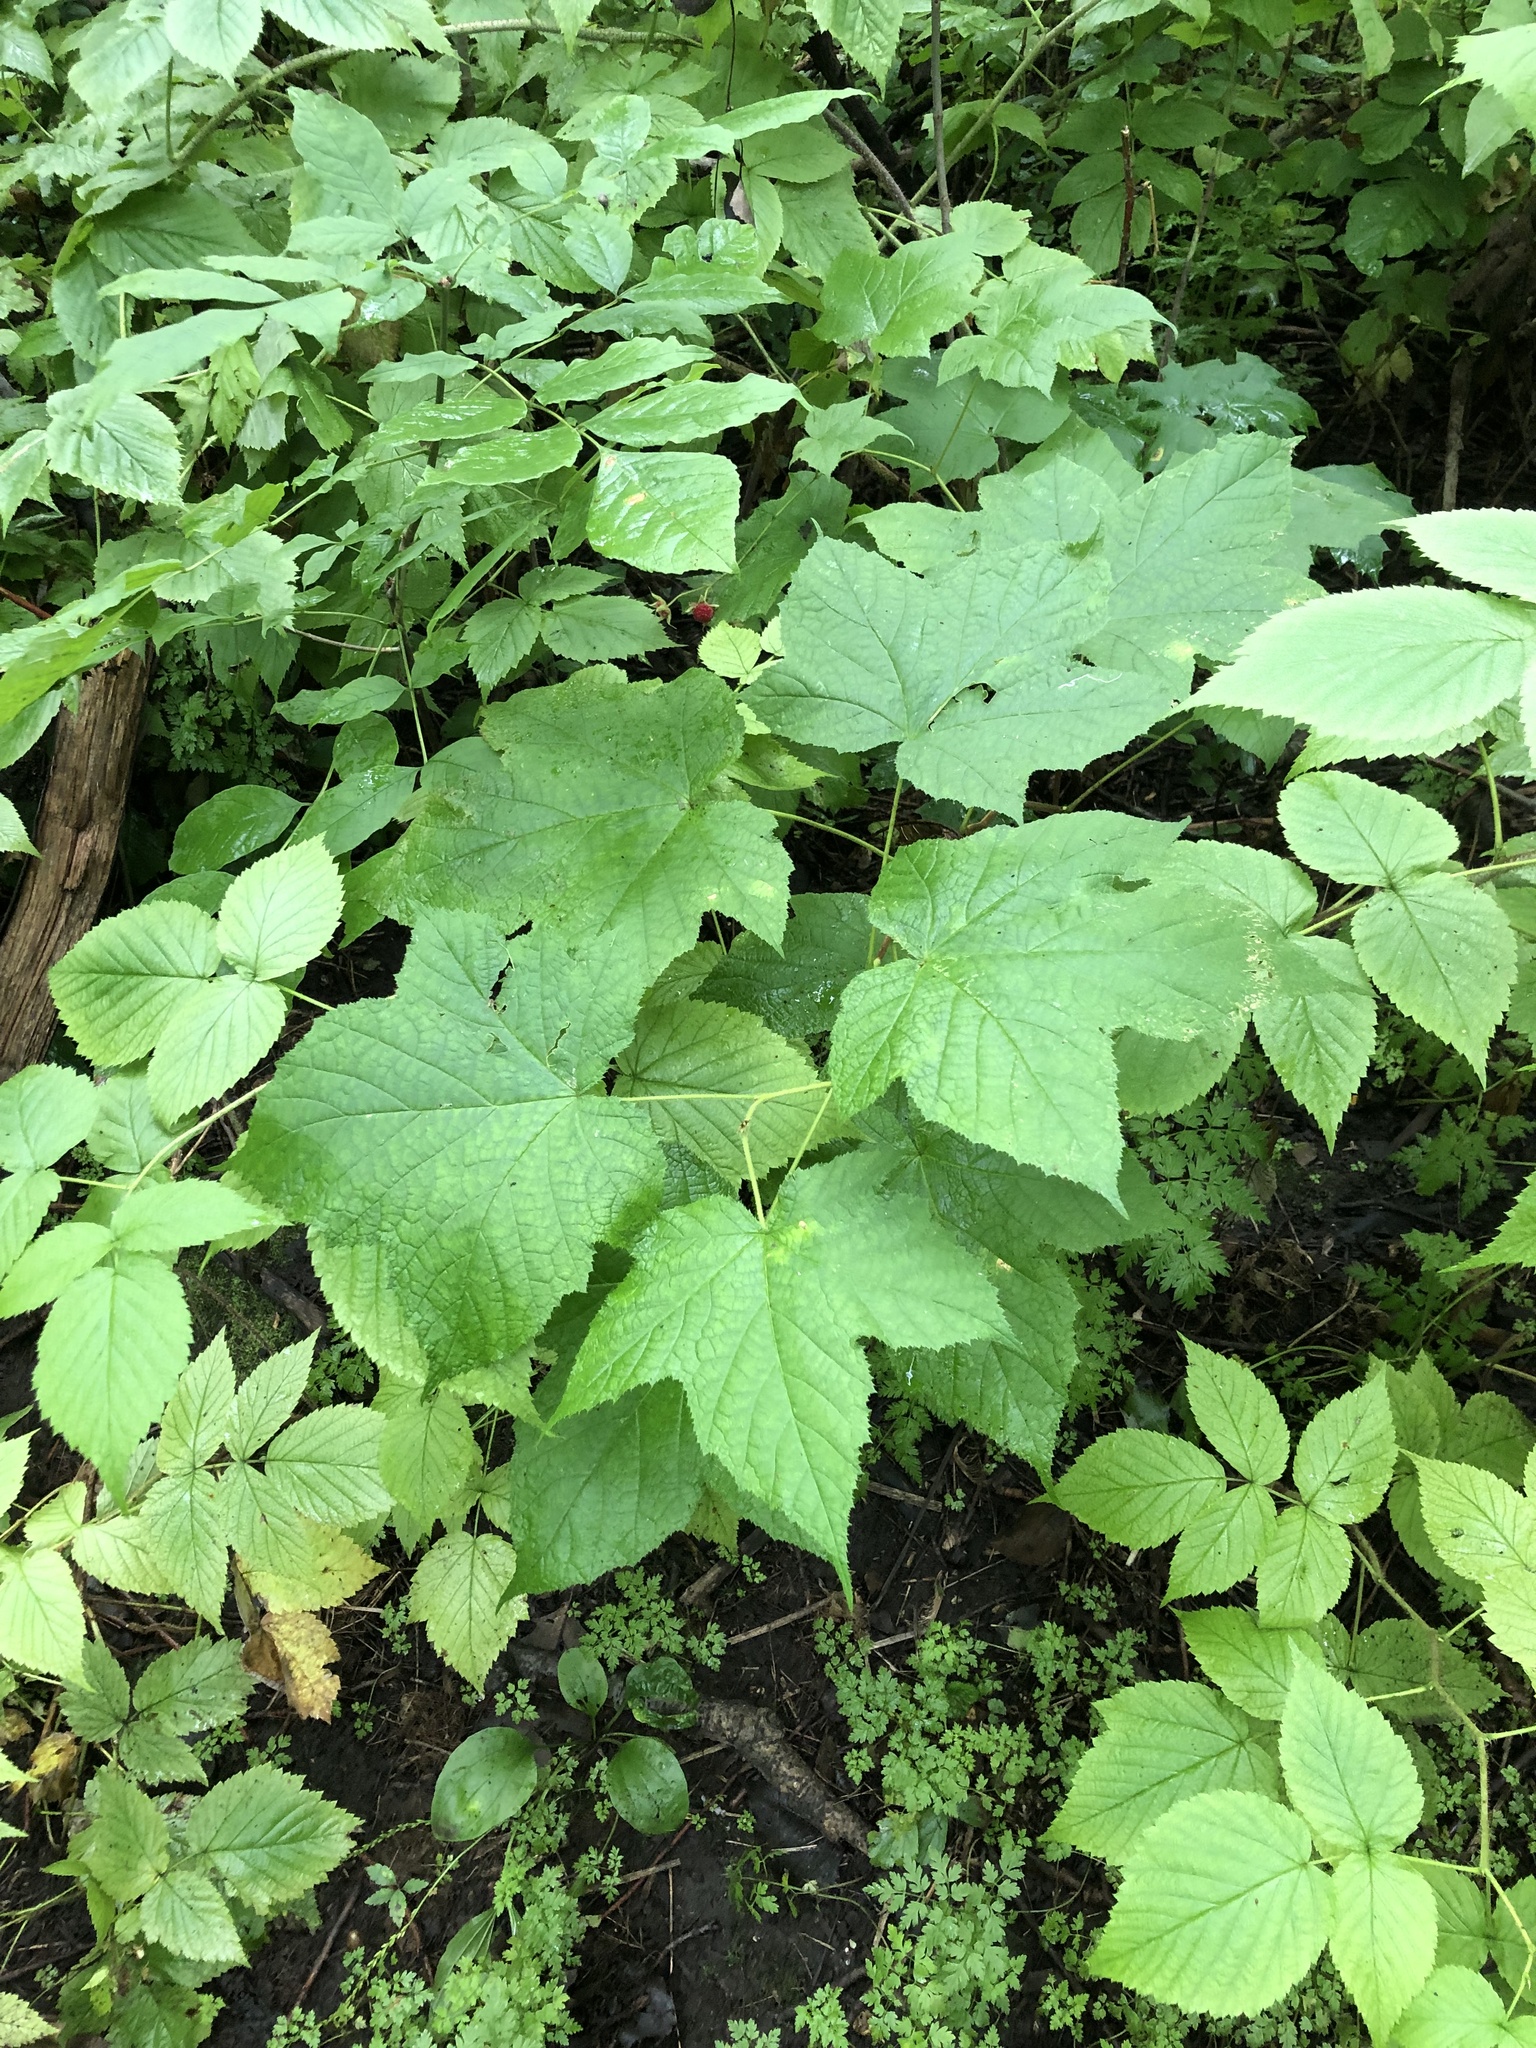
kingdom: Plantae
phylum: Tracheophyta
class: Magnoliopsida
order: Rosales
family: Rosaceae
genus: Rubus
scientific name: Rubus odoratus
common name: Purple-flowered raspberry
